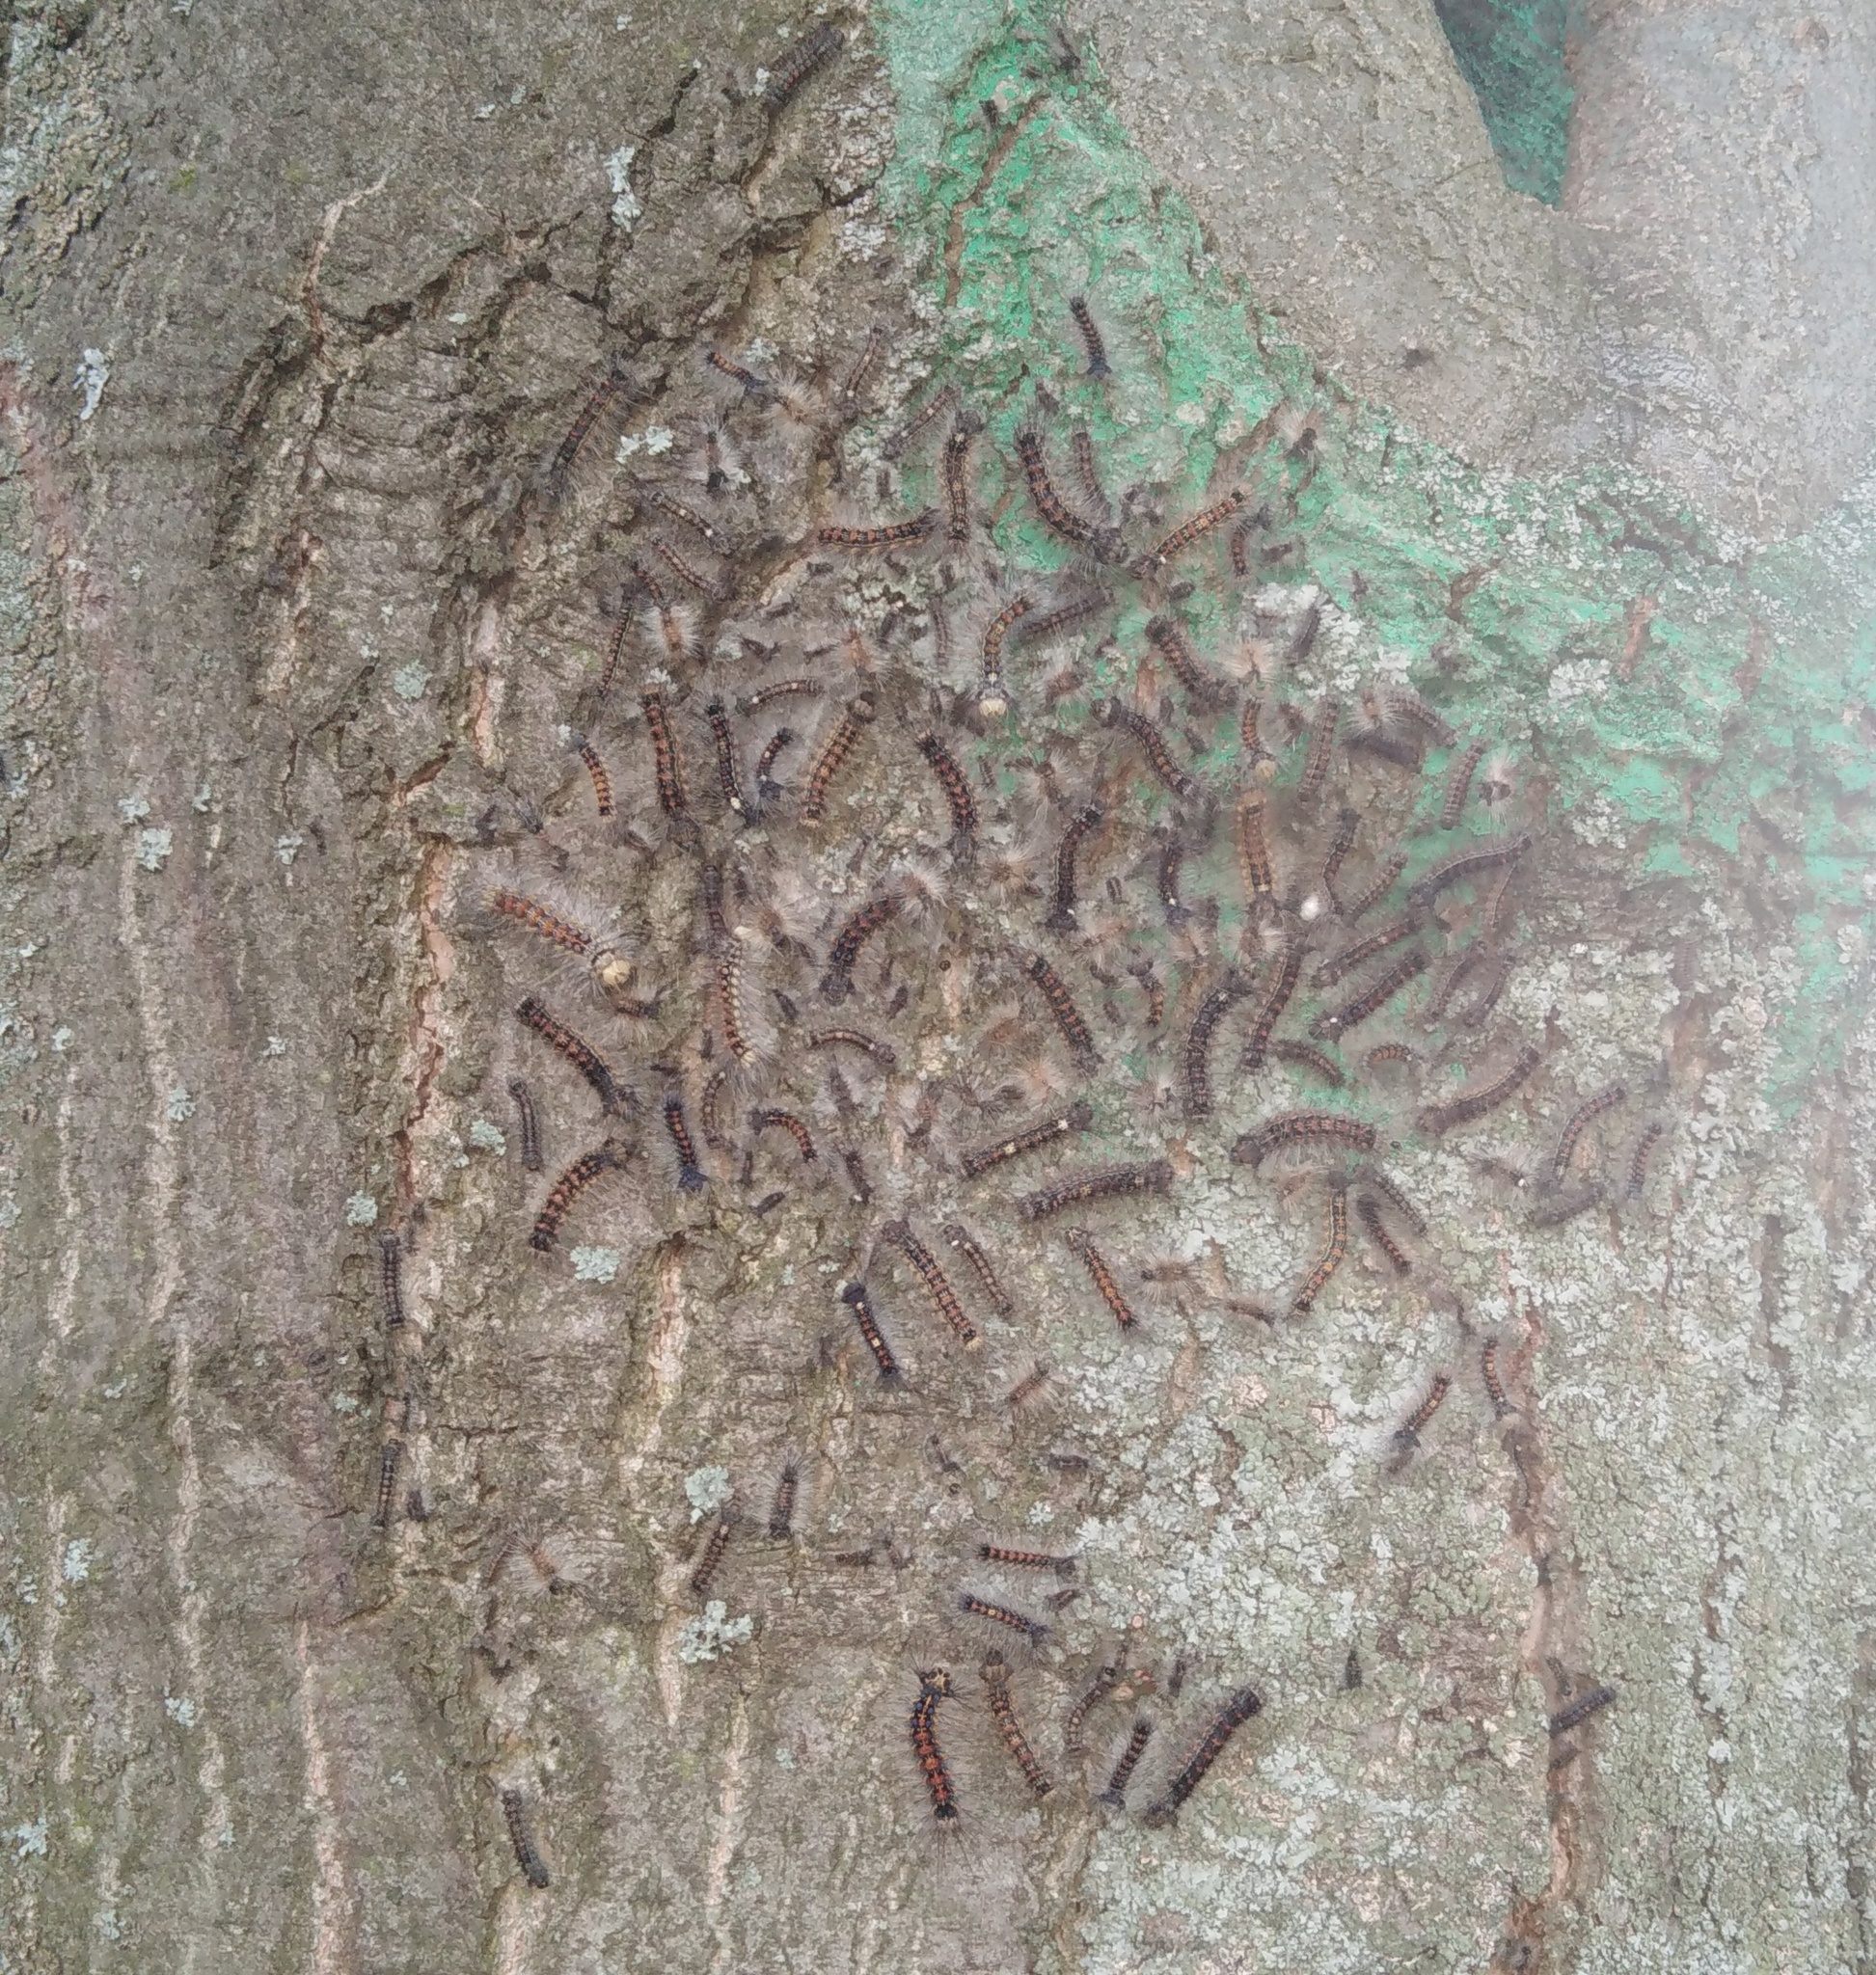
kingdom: Animalia
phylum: Arthropoda
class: Insecta
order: Lepidoptera
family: Erebidae
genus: Lymantria
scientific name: Lymantria dispar
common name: Gypsy moth
